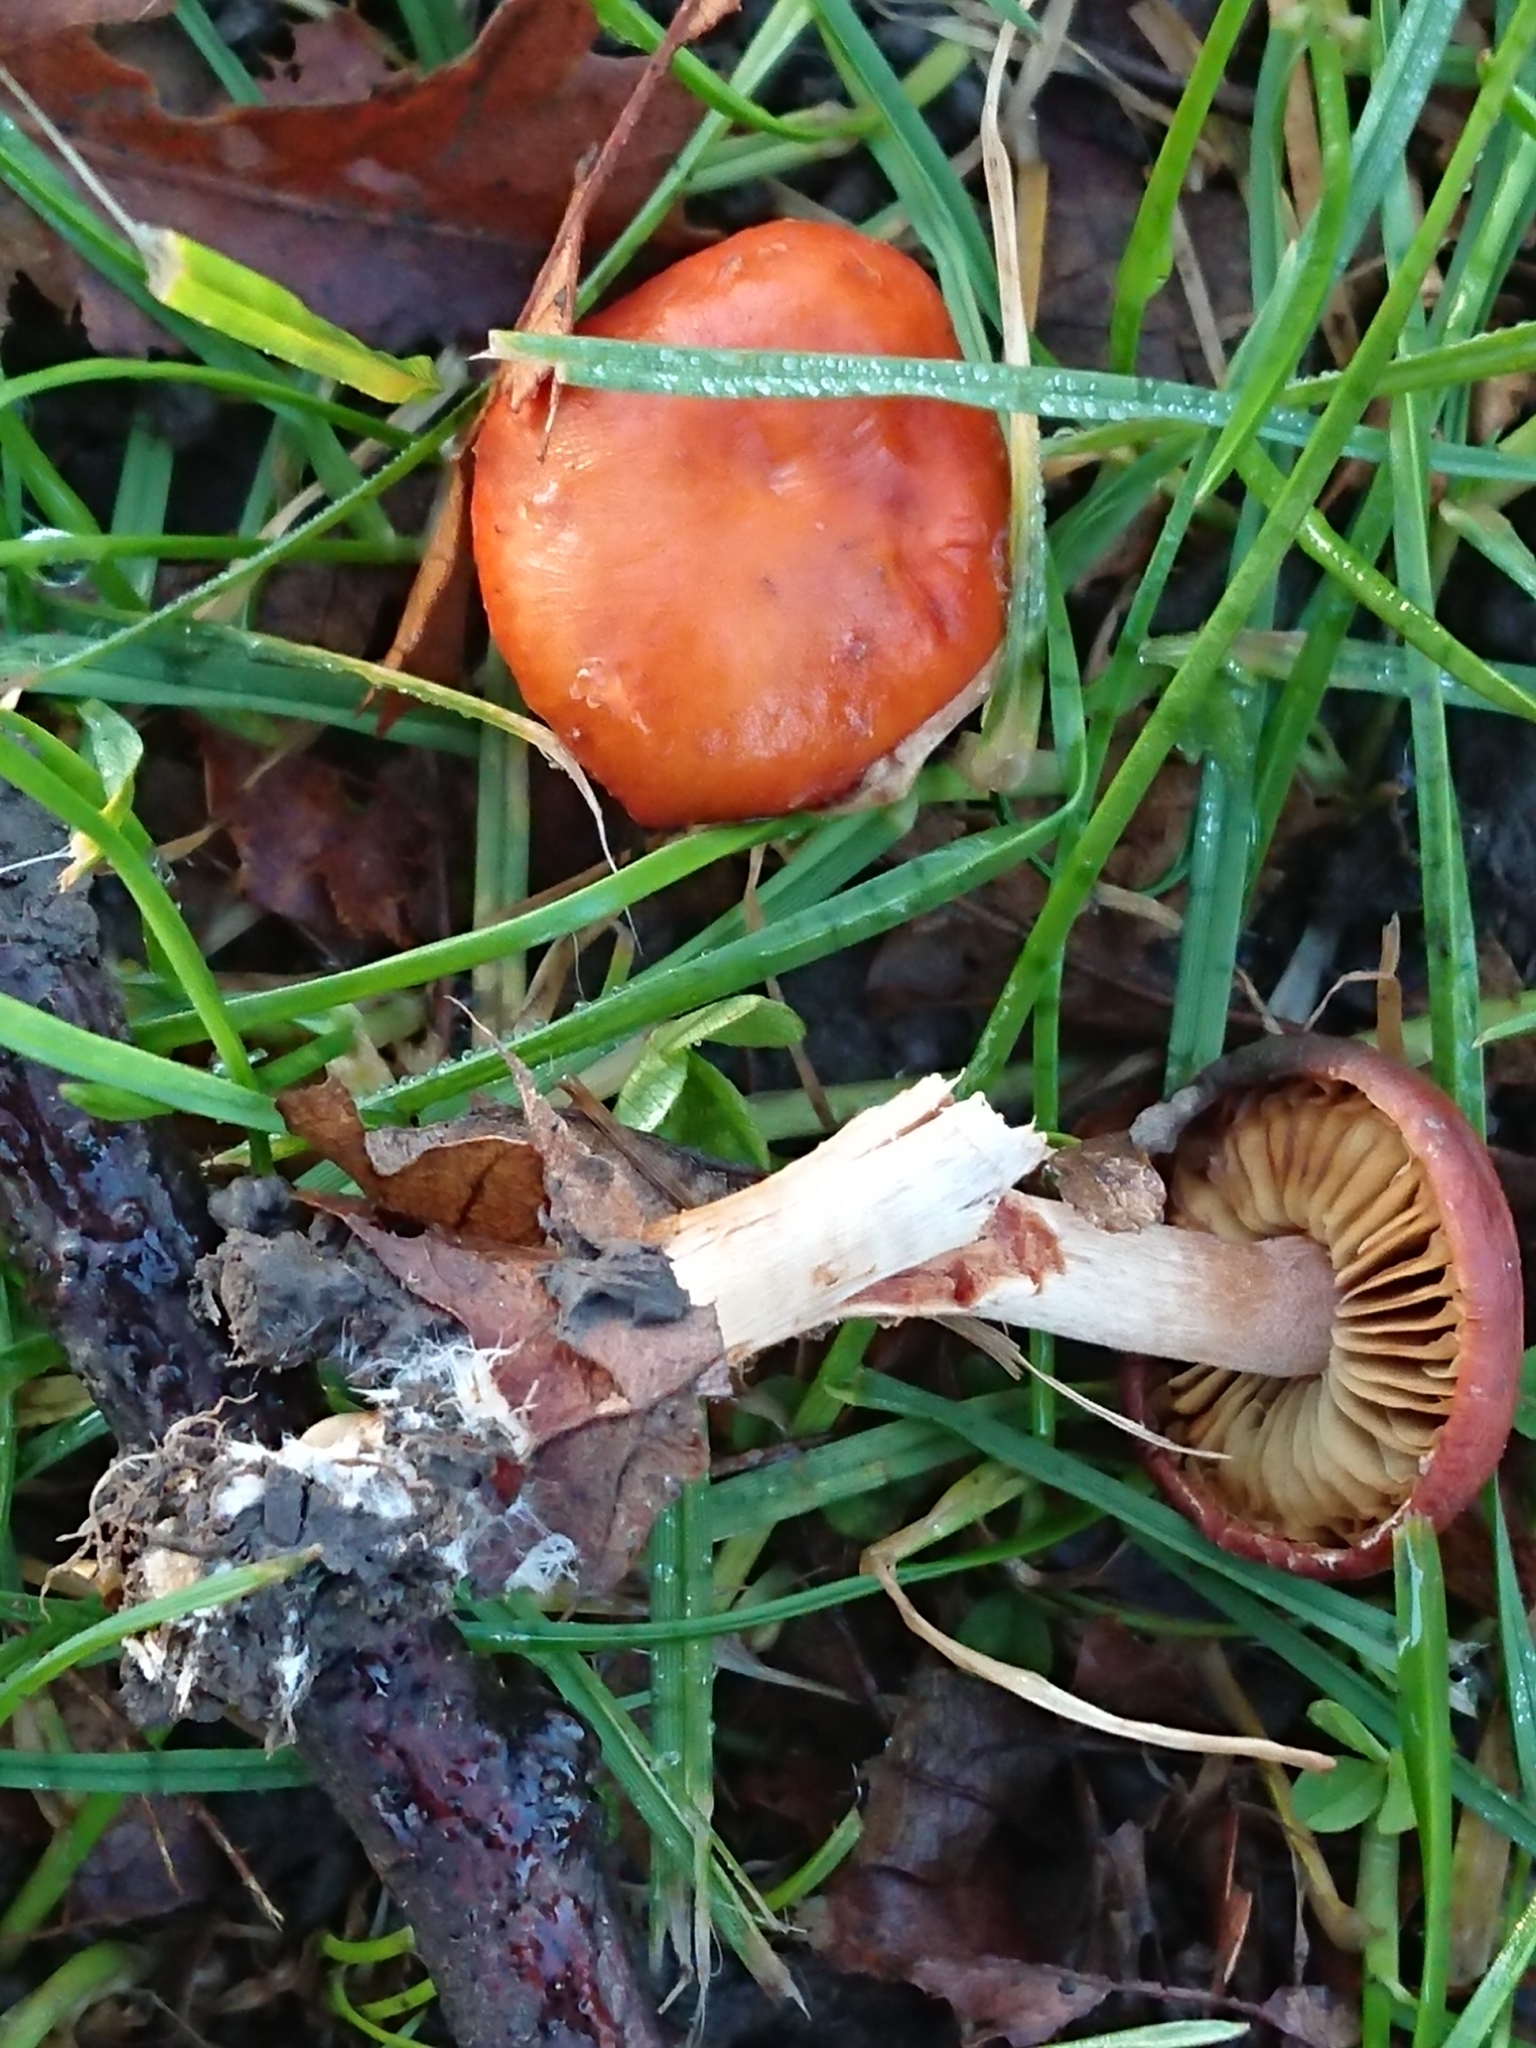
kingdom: Fungi
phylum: Basidiomycota
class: Agaricomycetes
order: Agaricales
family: Strophariaceae
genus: Leratiomyces
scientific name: Leratiomyces ceres
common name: Redlead roundhead
